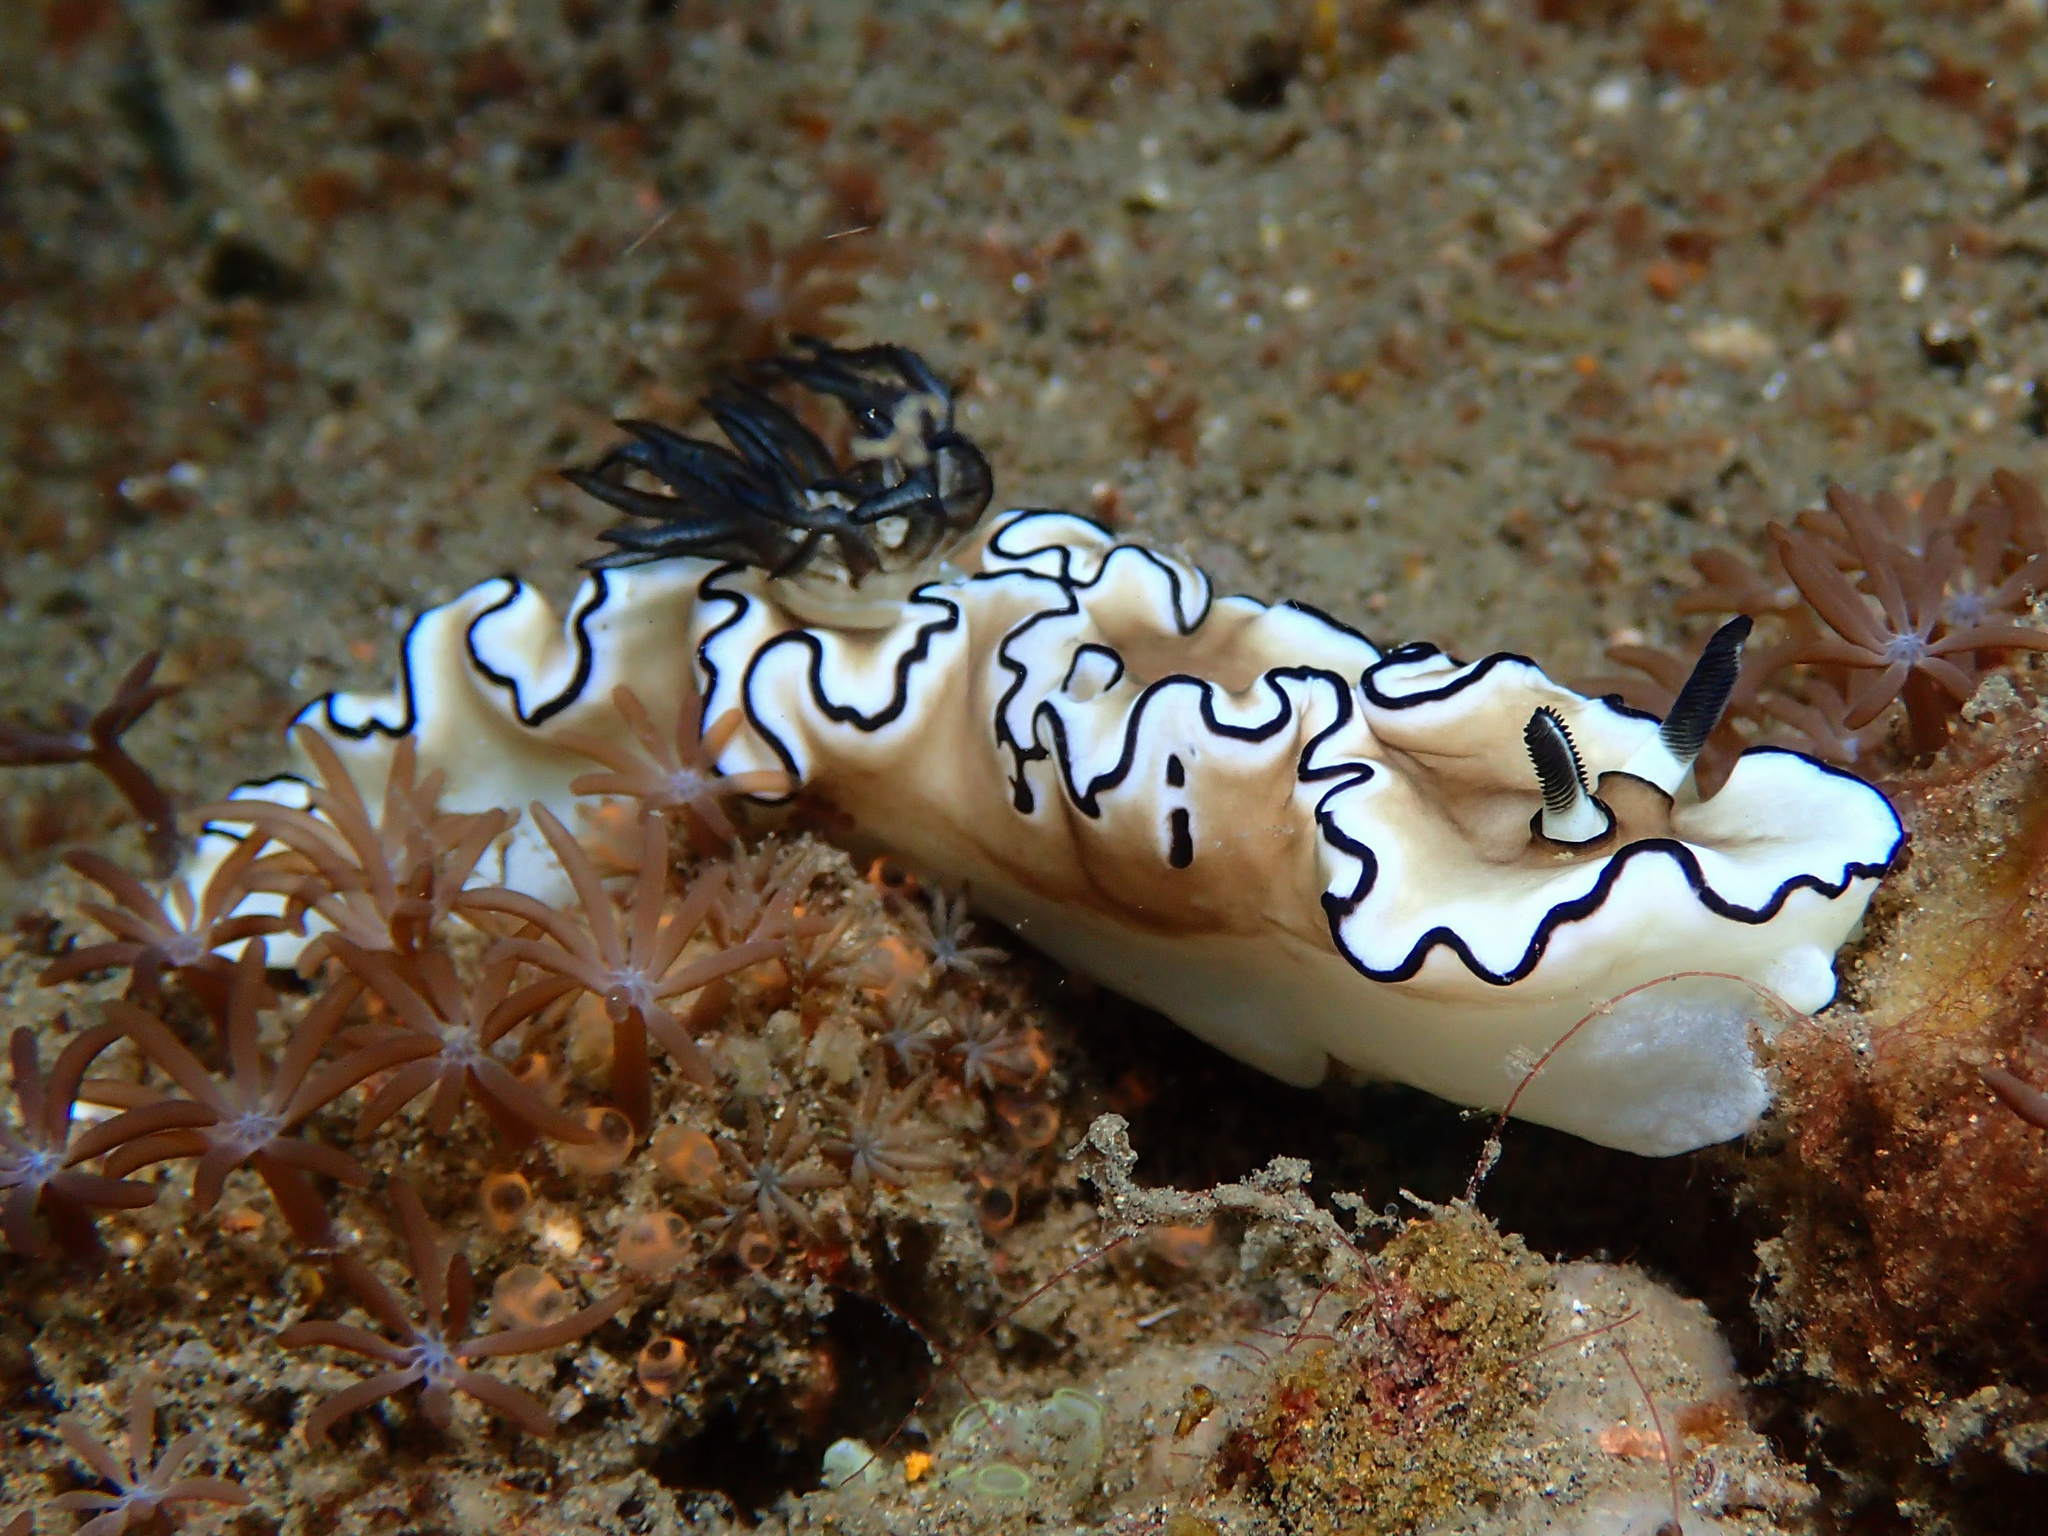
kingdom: Animalia
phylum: Mollusca
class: Gastropoda
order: Nudibranchia
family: Chromodorididae
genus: Doriprismatica
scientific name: Doriprismatica atromarginata
